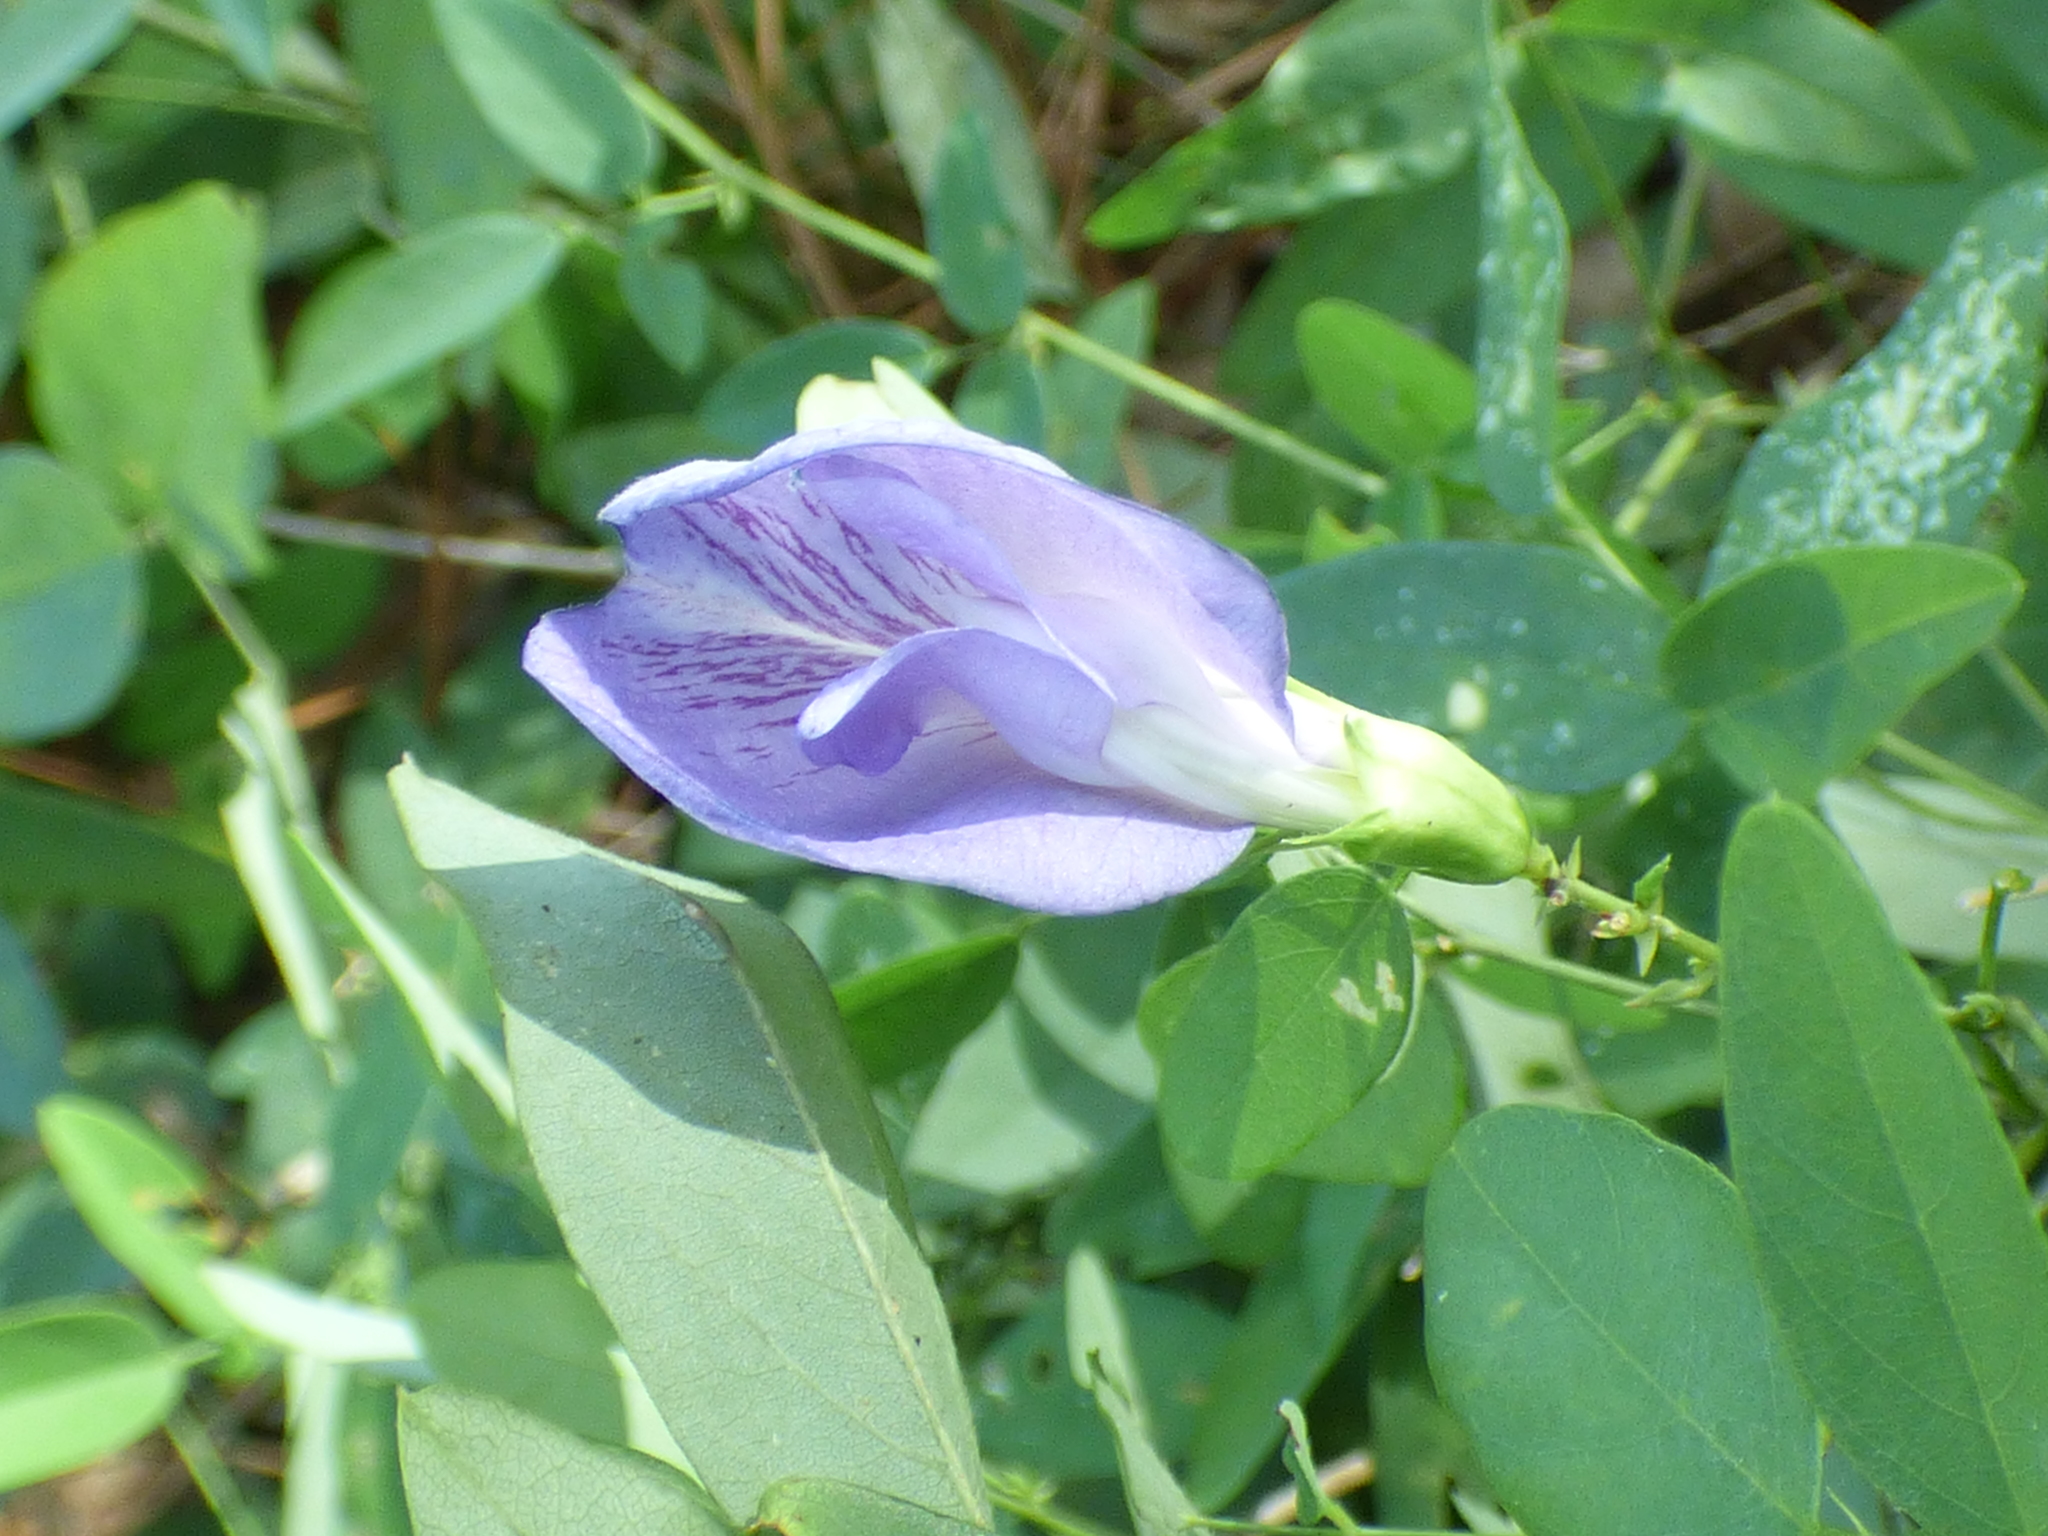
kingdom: Plantae
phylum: Tracheophyta
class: Magnoliopsida
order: Fabales
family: Fabaceae
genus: Clitoria
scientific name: Clitoria mariana
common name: Butterfly-pea
